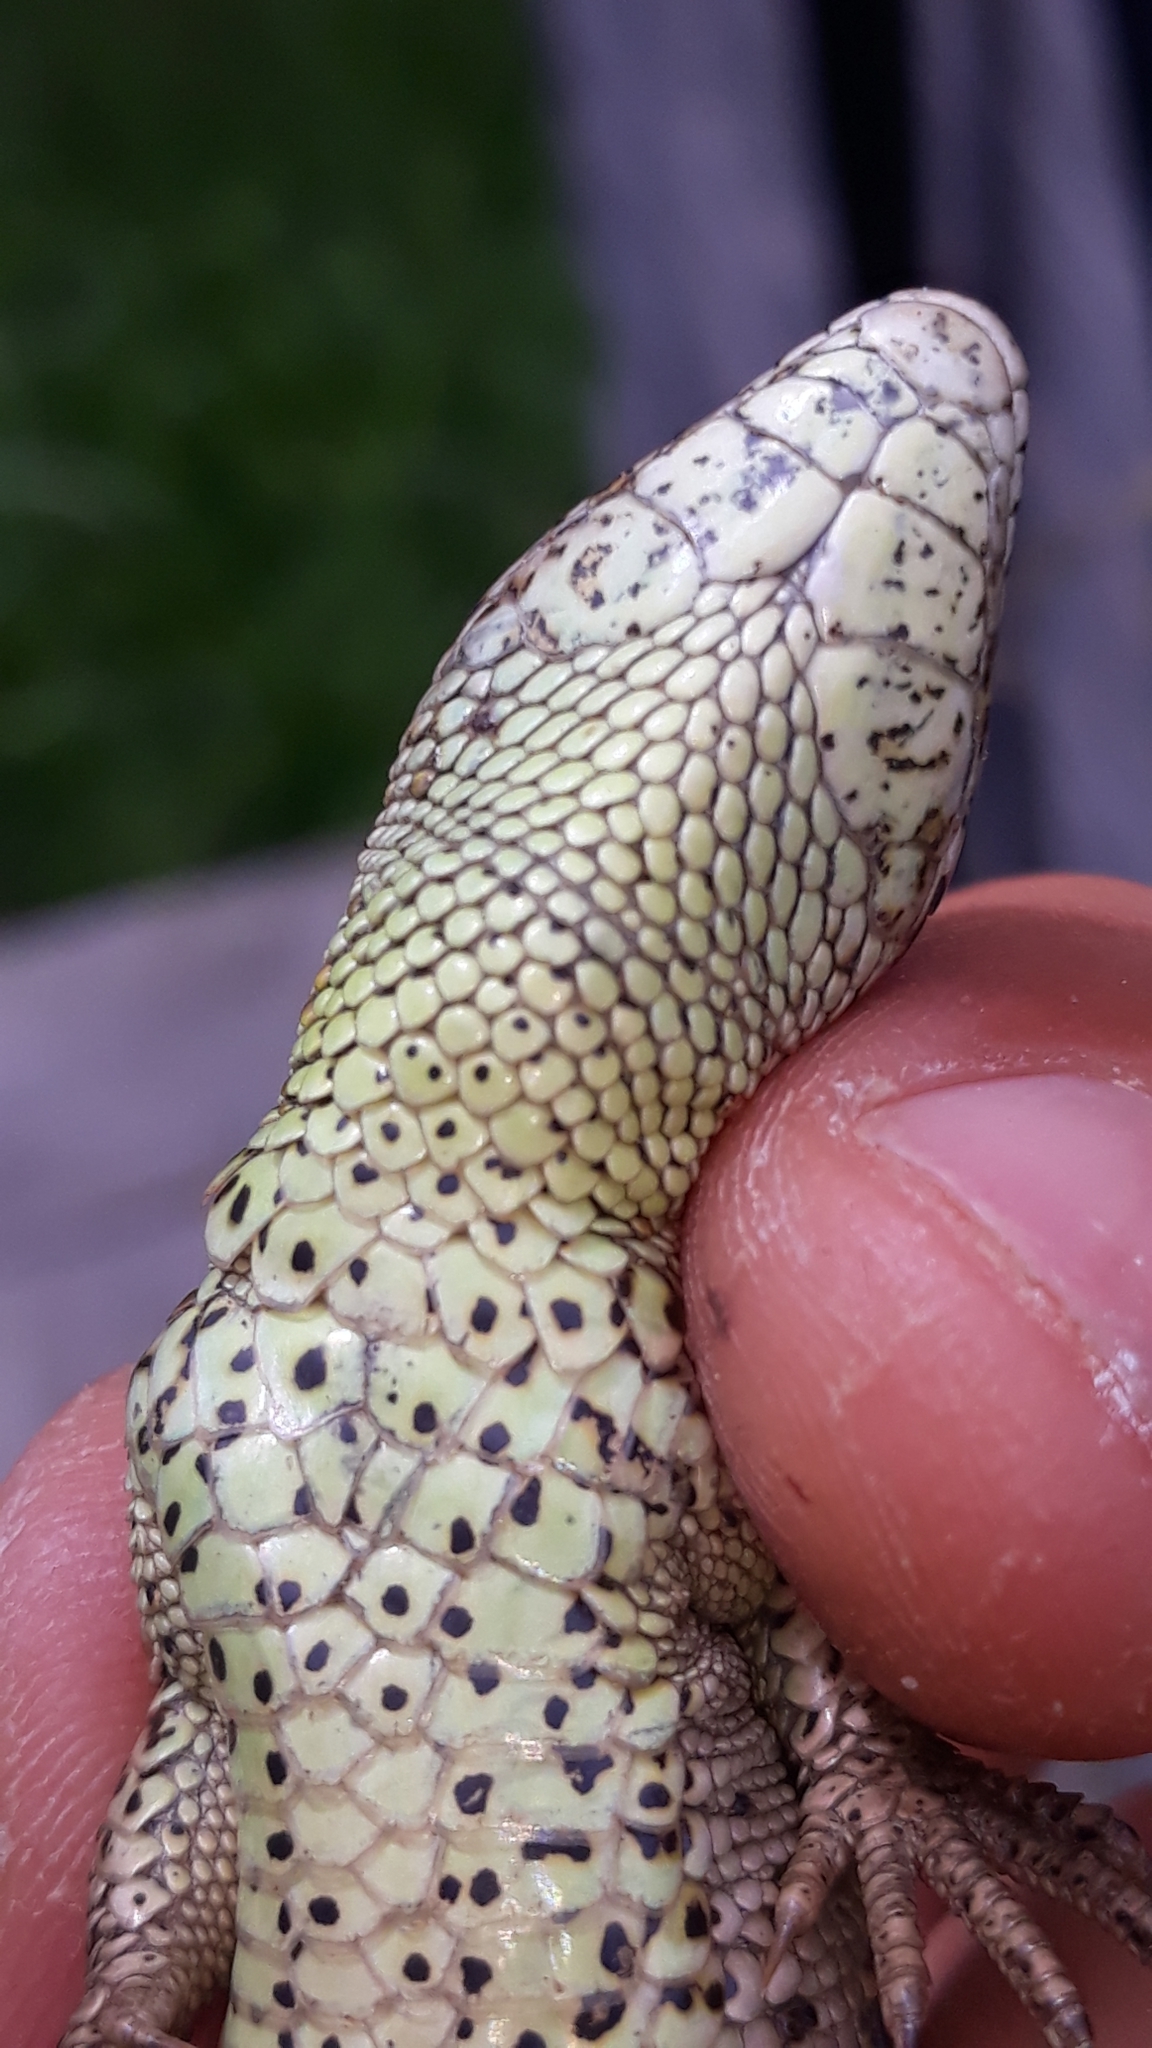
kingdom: Animalia
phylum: Chordata
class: Squamata
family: Lacertidae
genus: Lacerta
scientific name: Lacerta agilis
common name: Sand lizard
